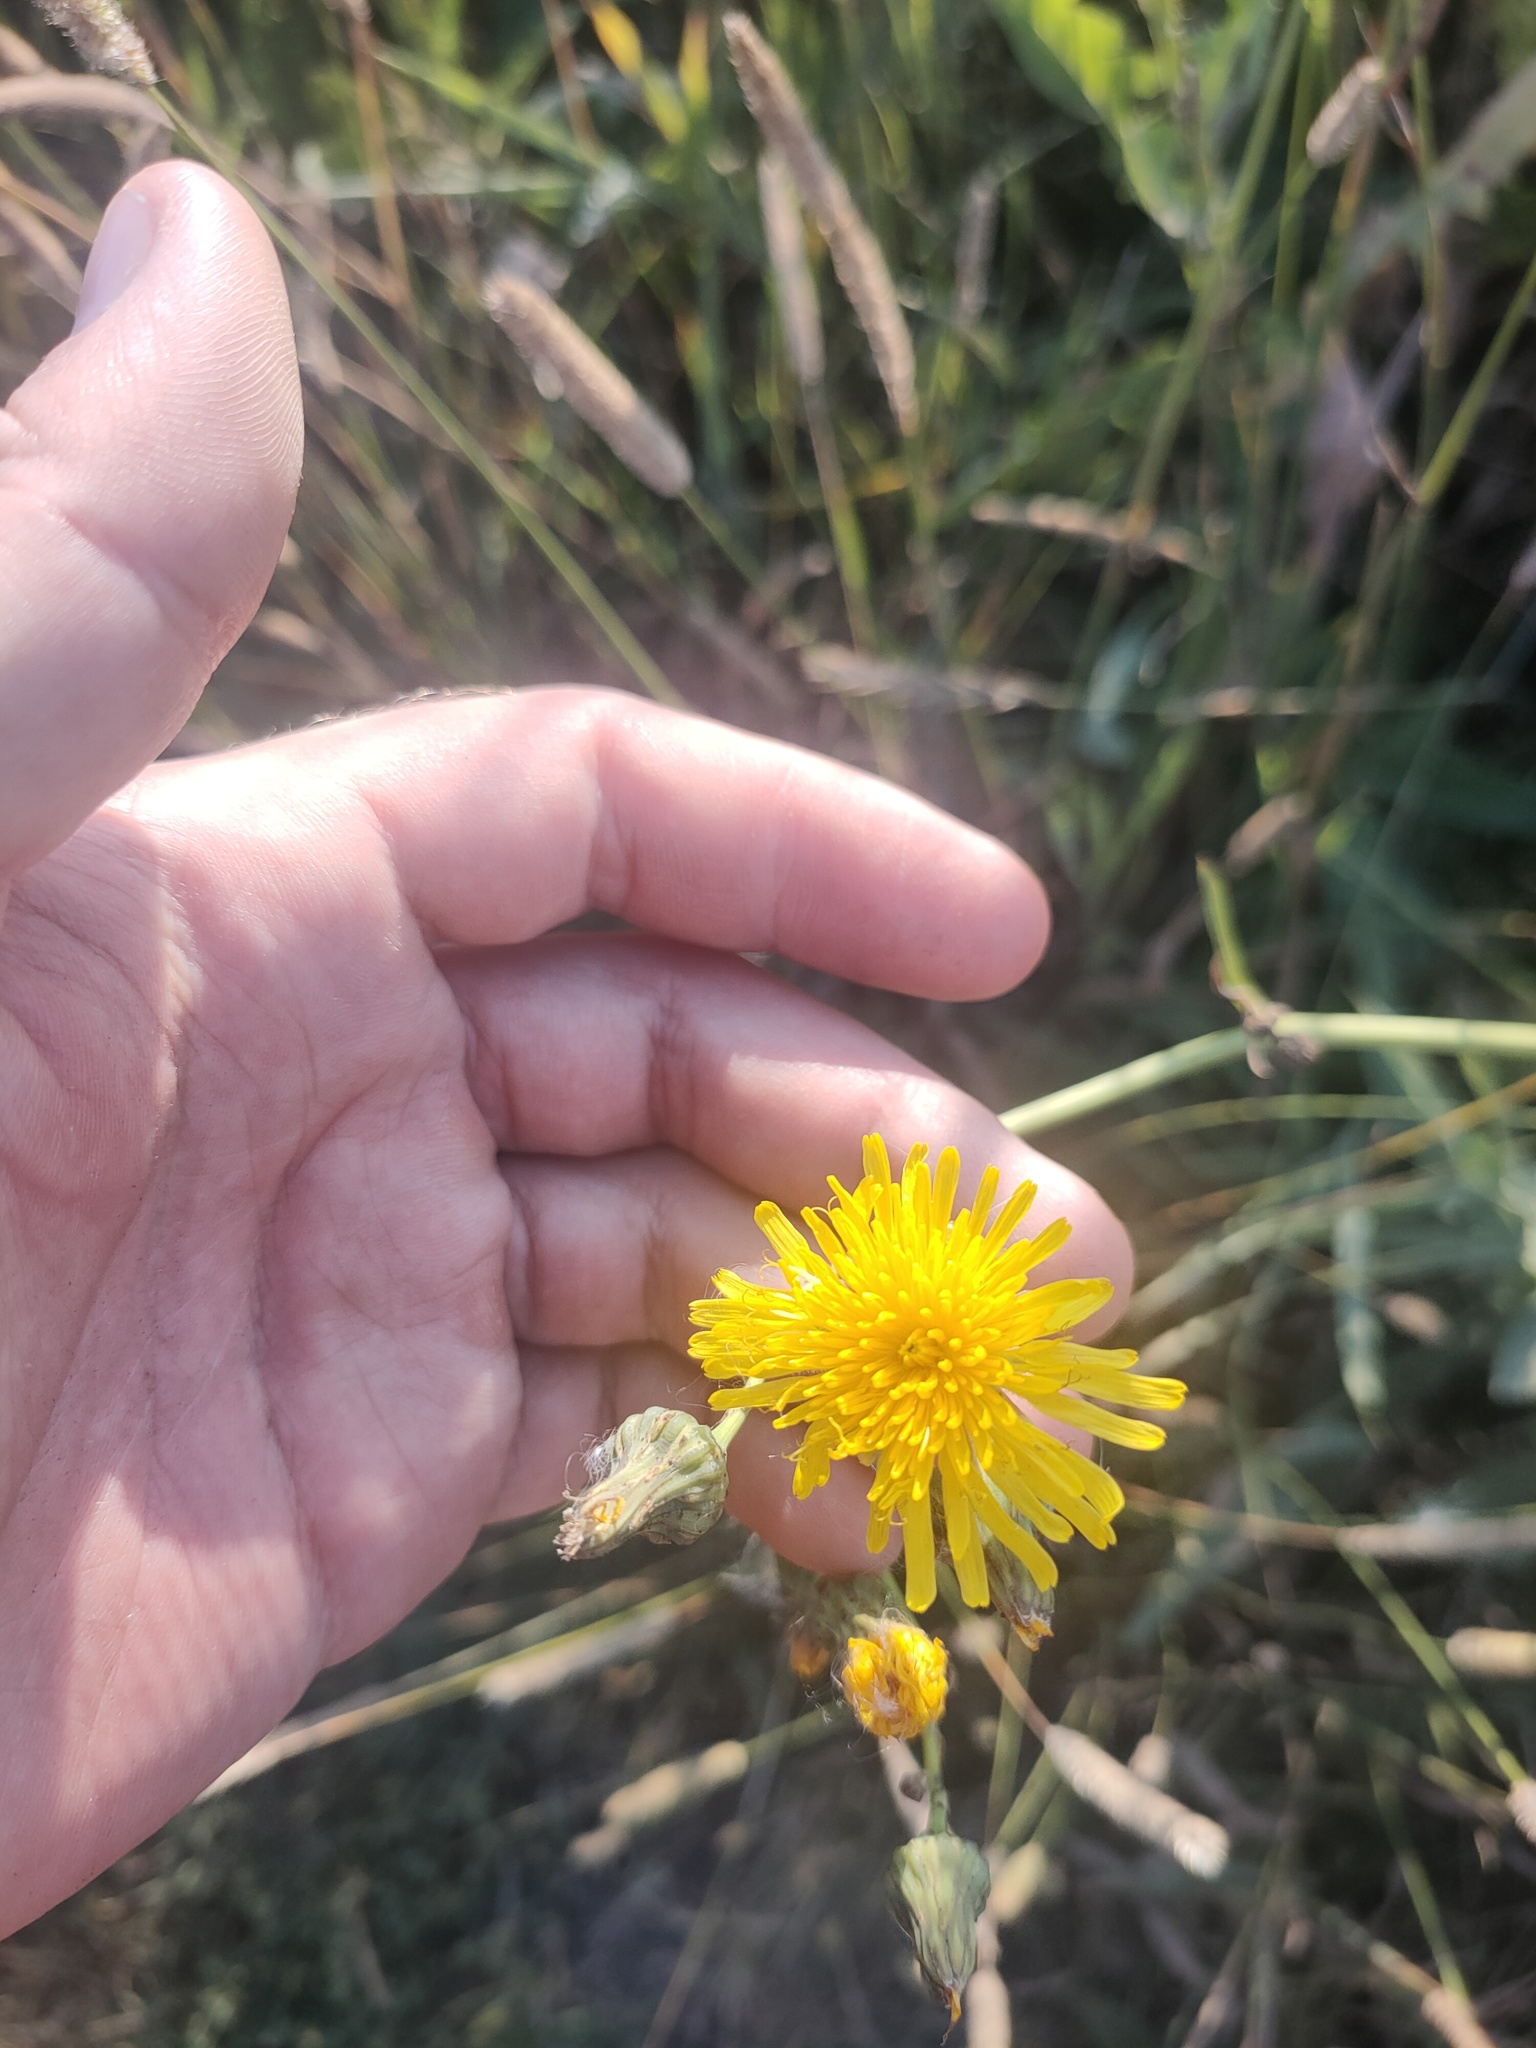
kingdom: Plantae
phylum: Tracheophyta
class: Magnoliopsida
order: Asterales
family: Asteraceae
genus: Sonchus
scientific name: Sonchus arvensis
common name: Perennial sow-thistle
